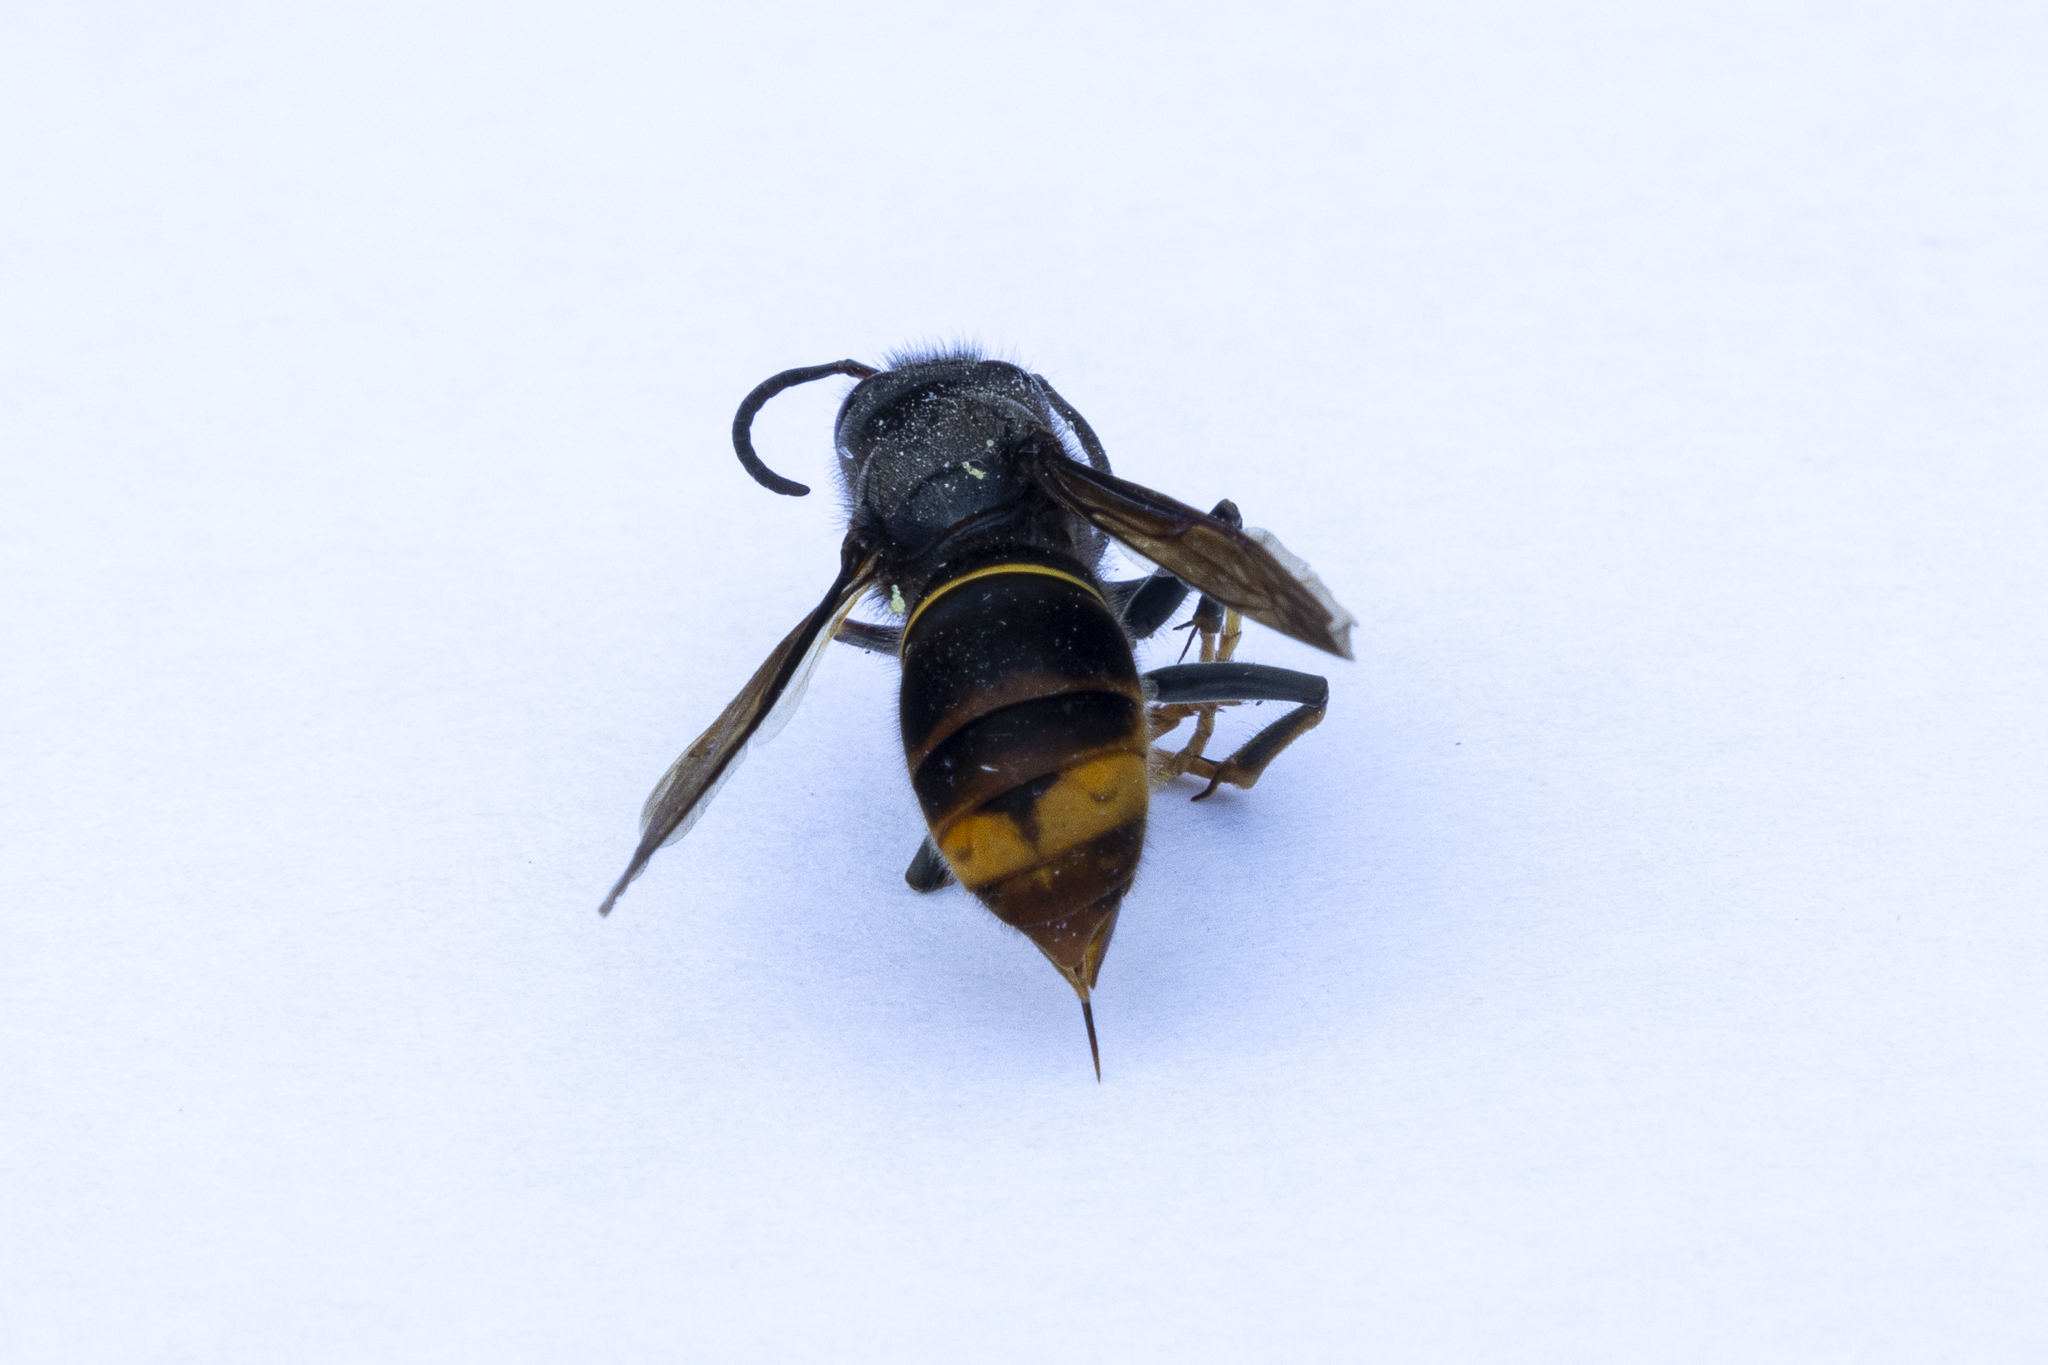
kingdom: Animalia
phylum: Arthropoda
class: Insecta
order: Hymenoptera
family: Vespidae
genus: Vespa
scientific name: Vespa velutina
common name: Asian hornet
